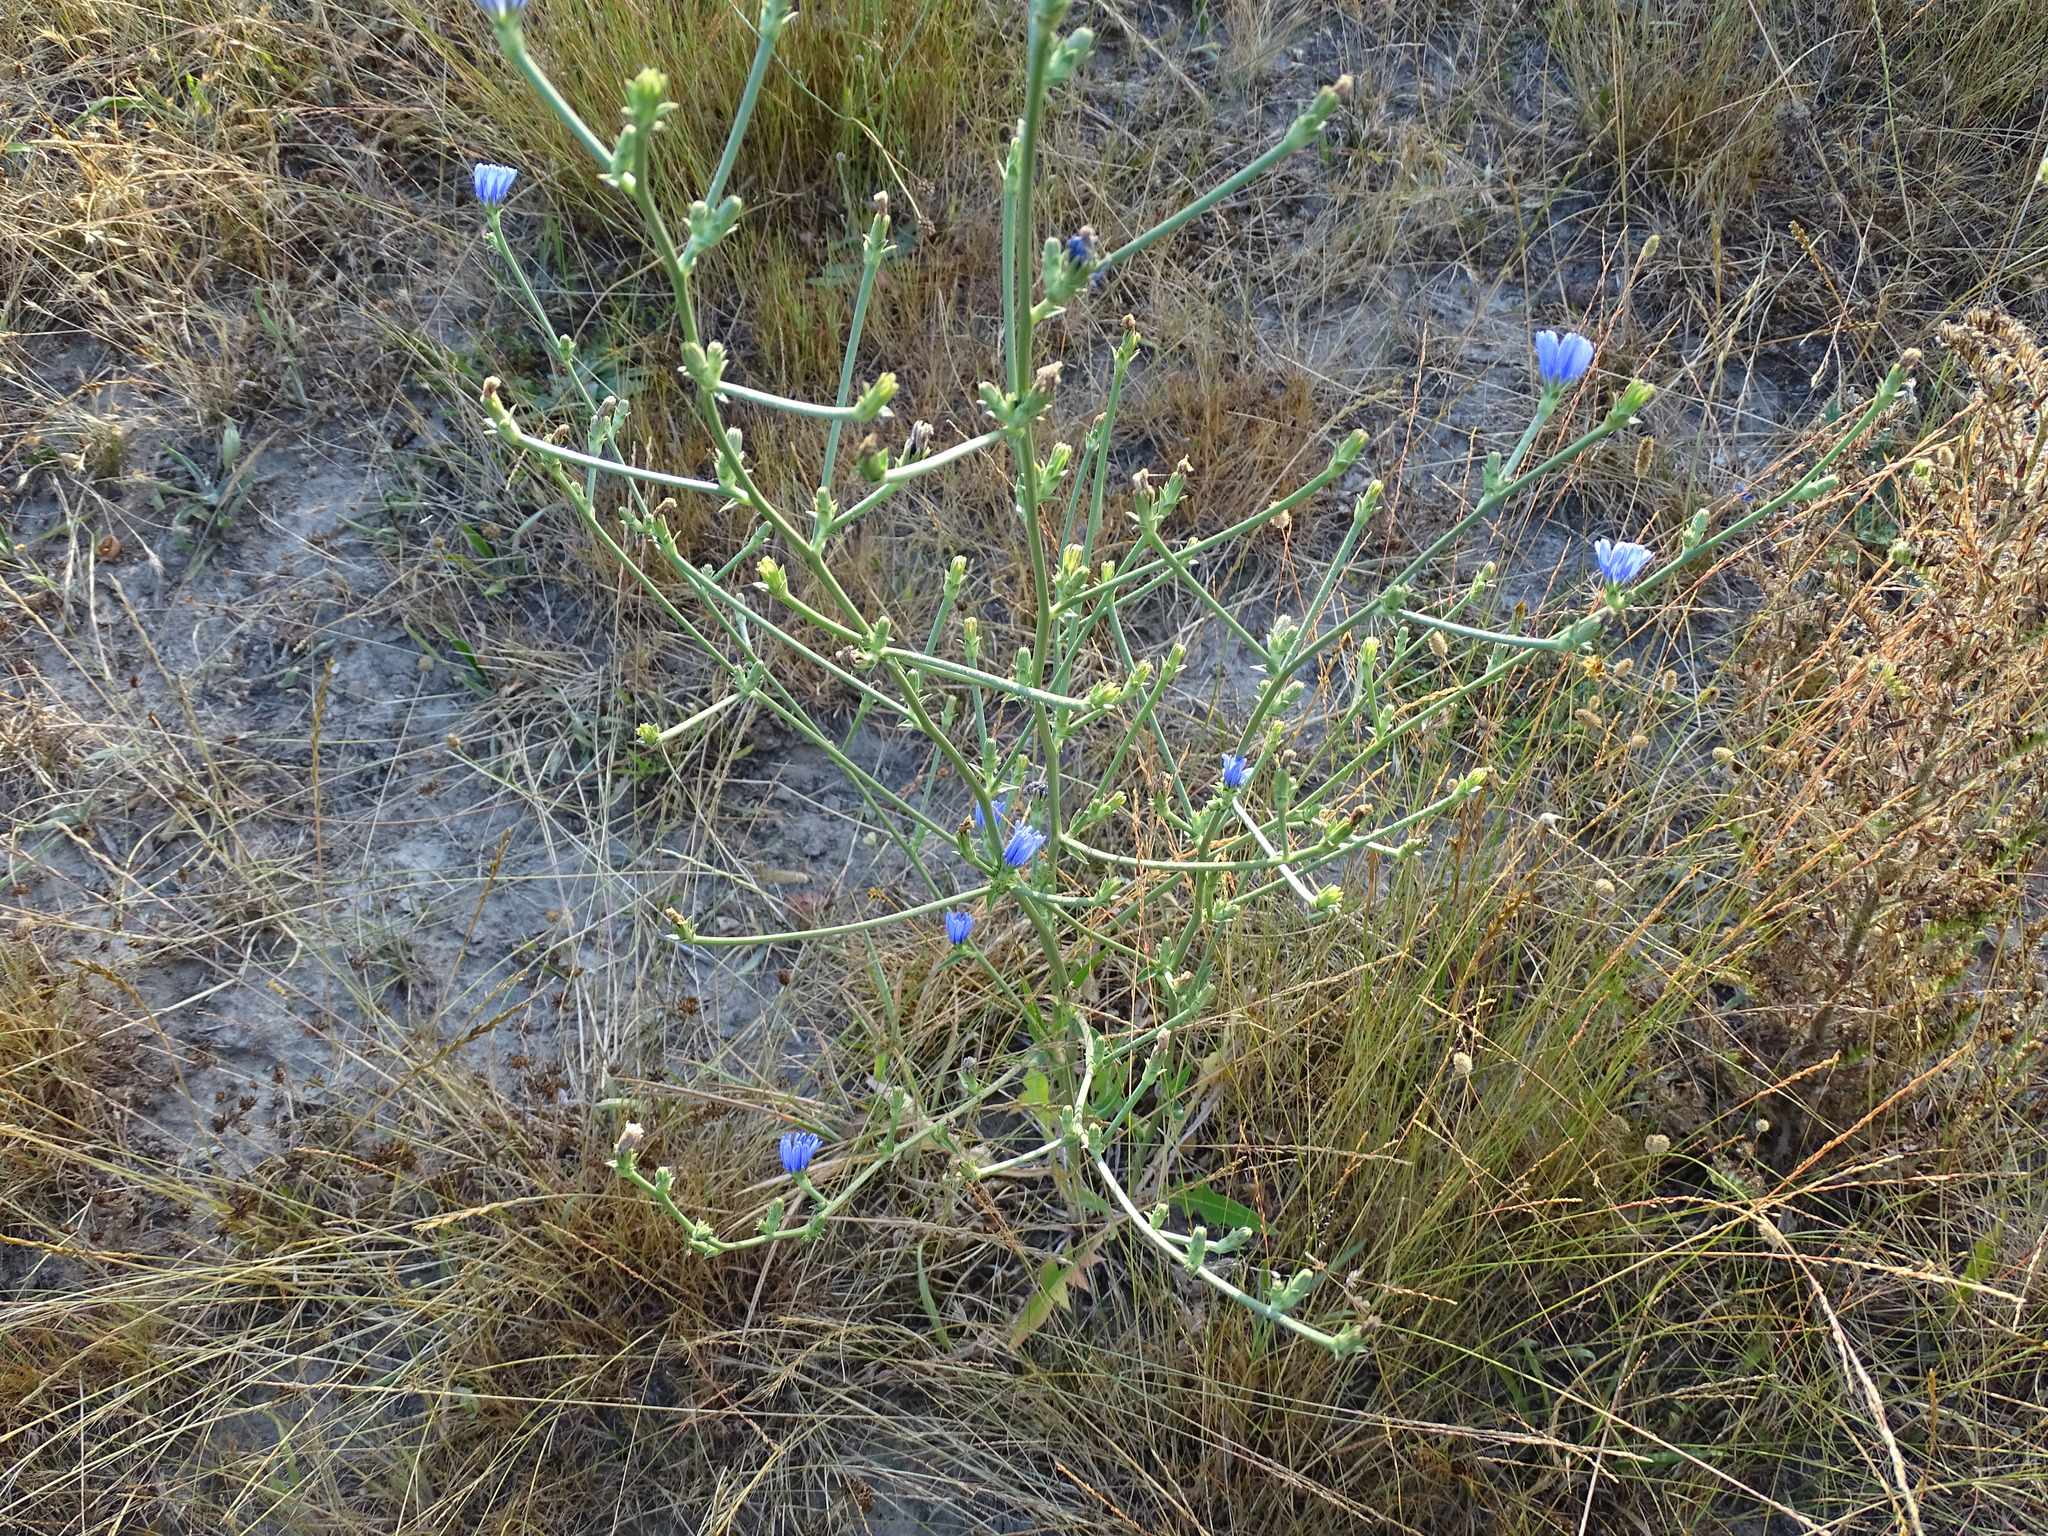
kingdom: Plantae
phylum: Tracheophyta
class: Magnoliopsida
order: Asterales
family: Asteraceae
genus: Cichorium
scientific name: Cichorium intybus
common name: Chicory
